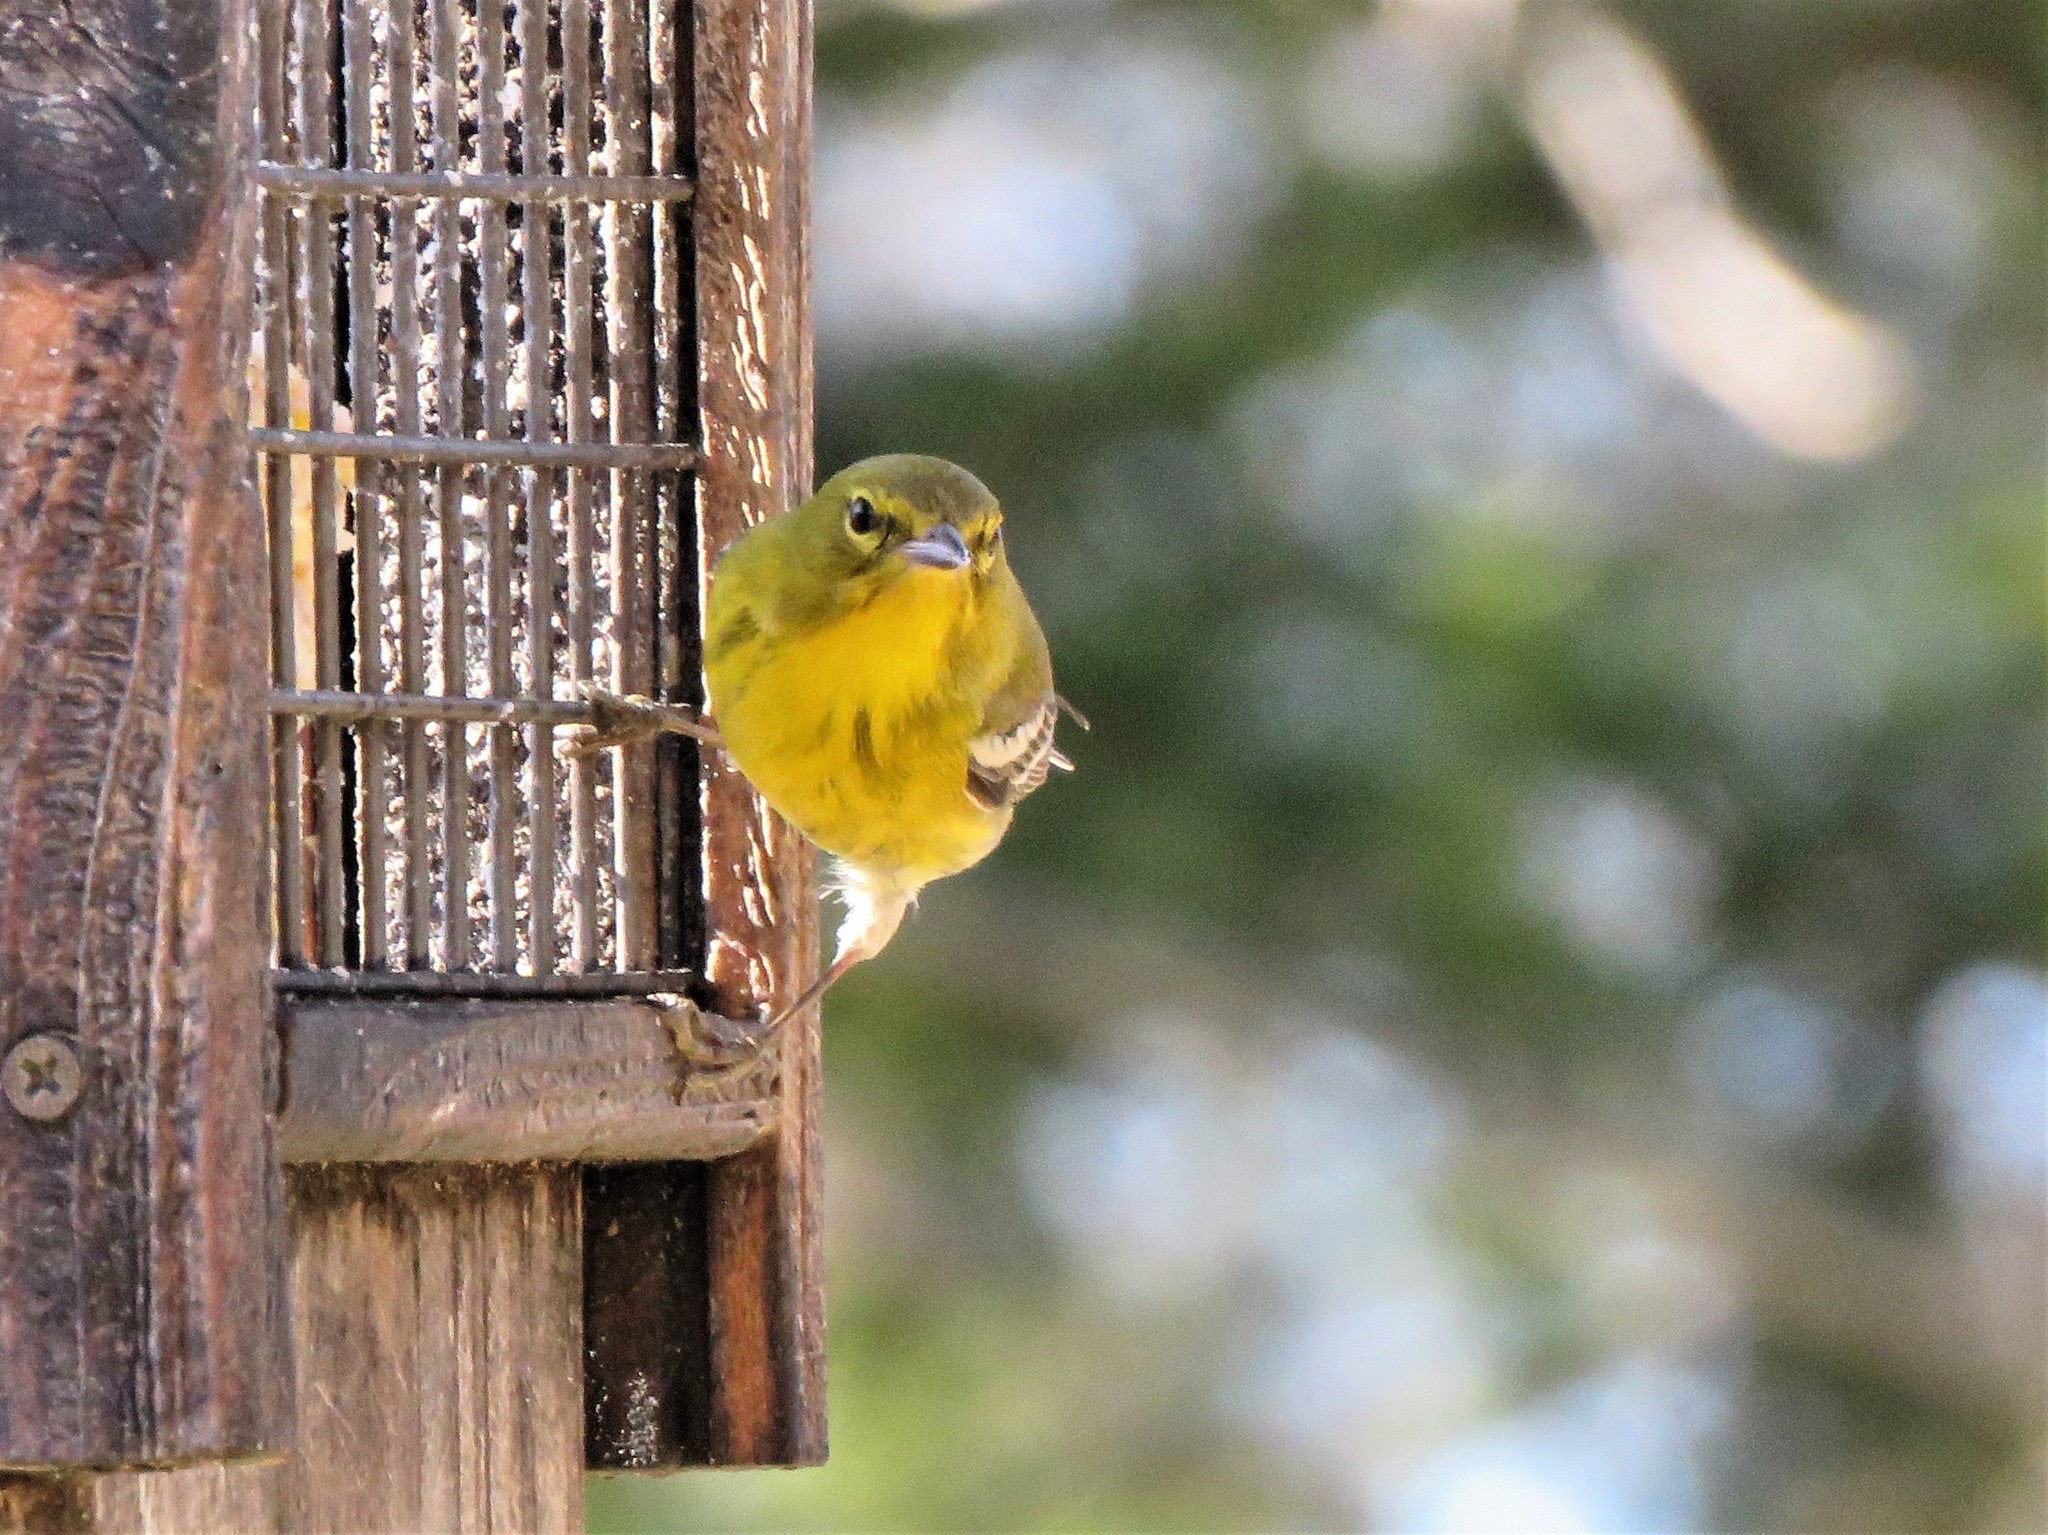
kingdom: Animalia
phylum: Chordata
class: Aves
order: Passeriformes
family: Parulidae
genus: Setophaga
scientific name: Setophaga pinus
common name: Pine warbler
